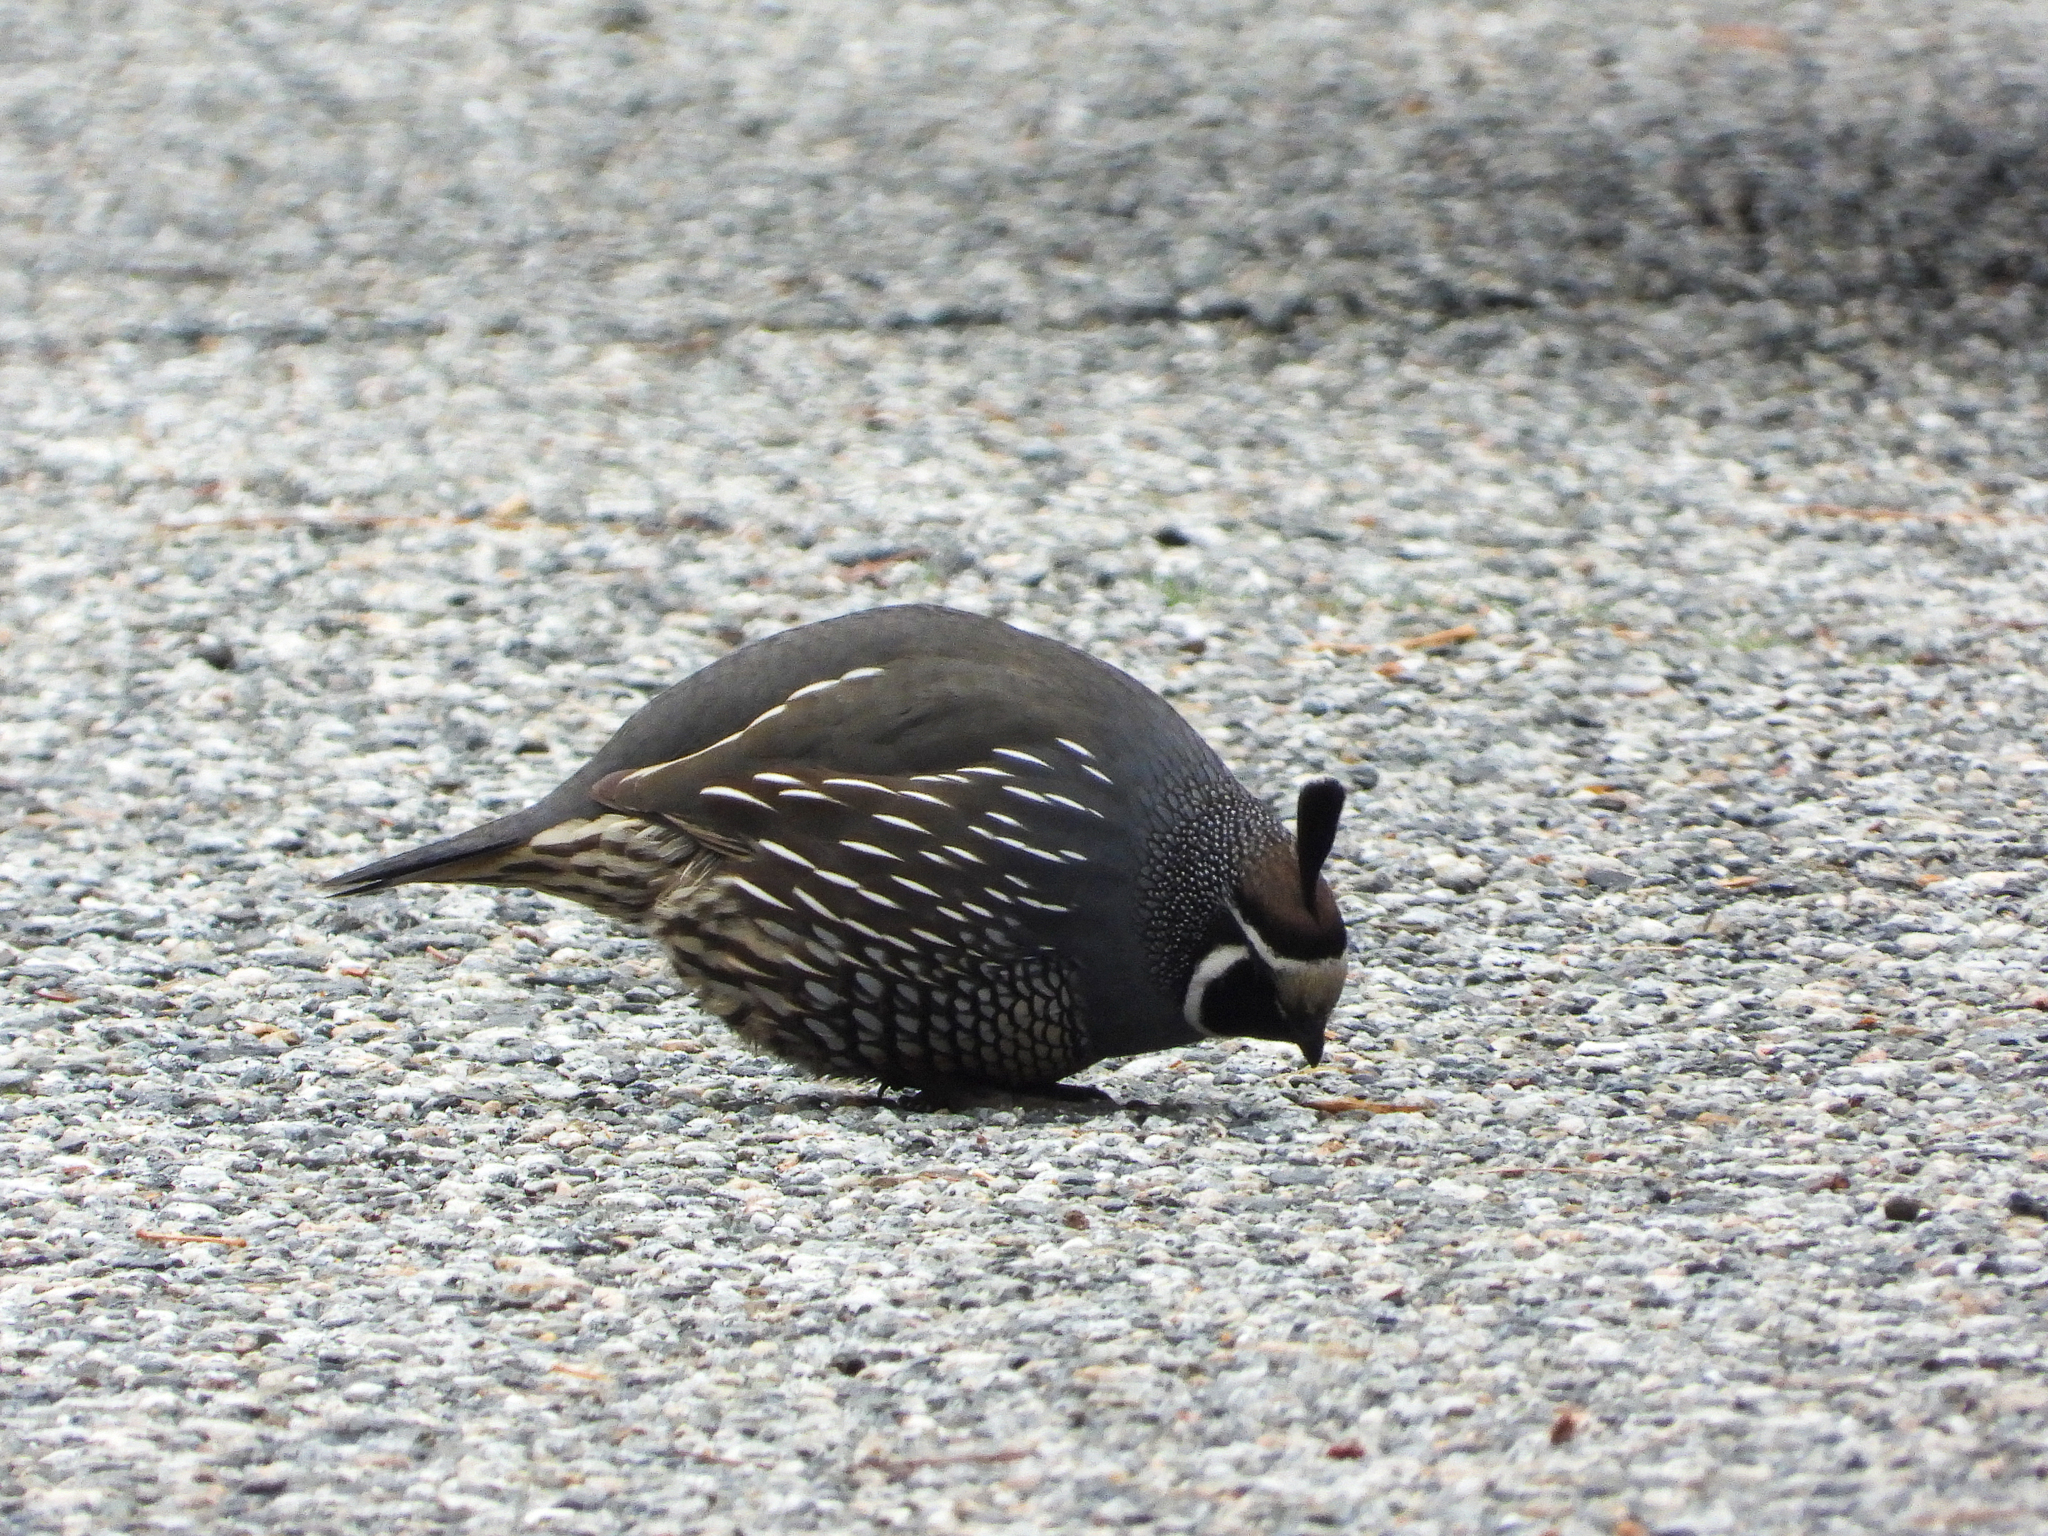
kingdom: Animalia
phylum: Chordata
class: Aves
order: Galliformes
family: Odontophoridae
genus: Callipepla
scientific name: Callipepla californica
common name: California quail
